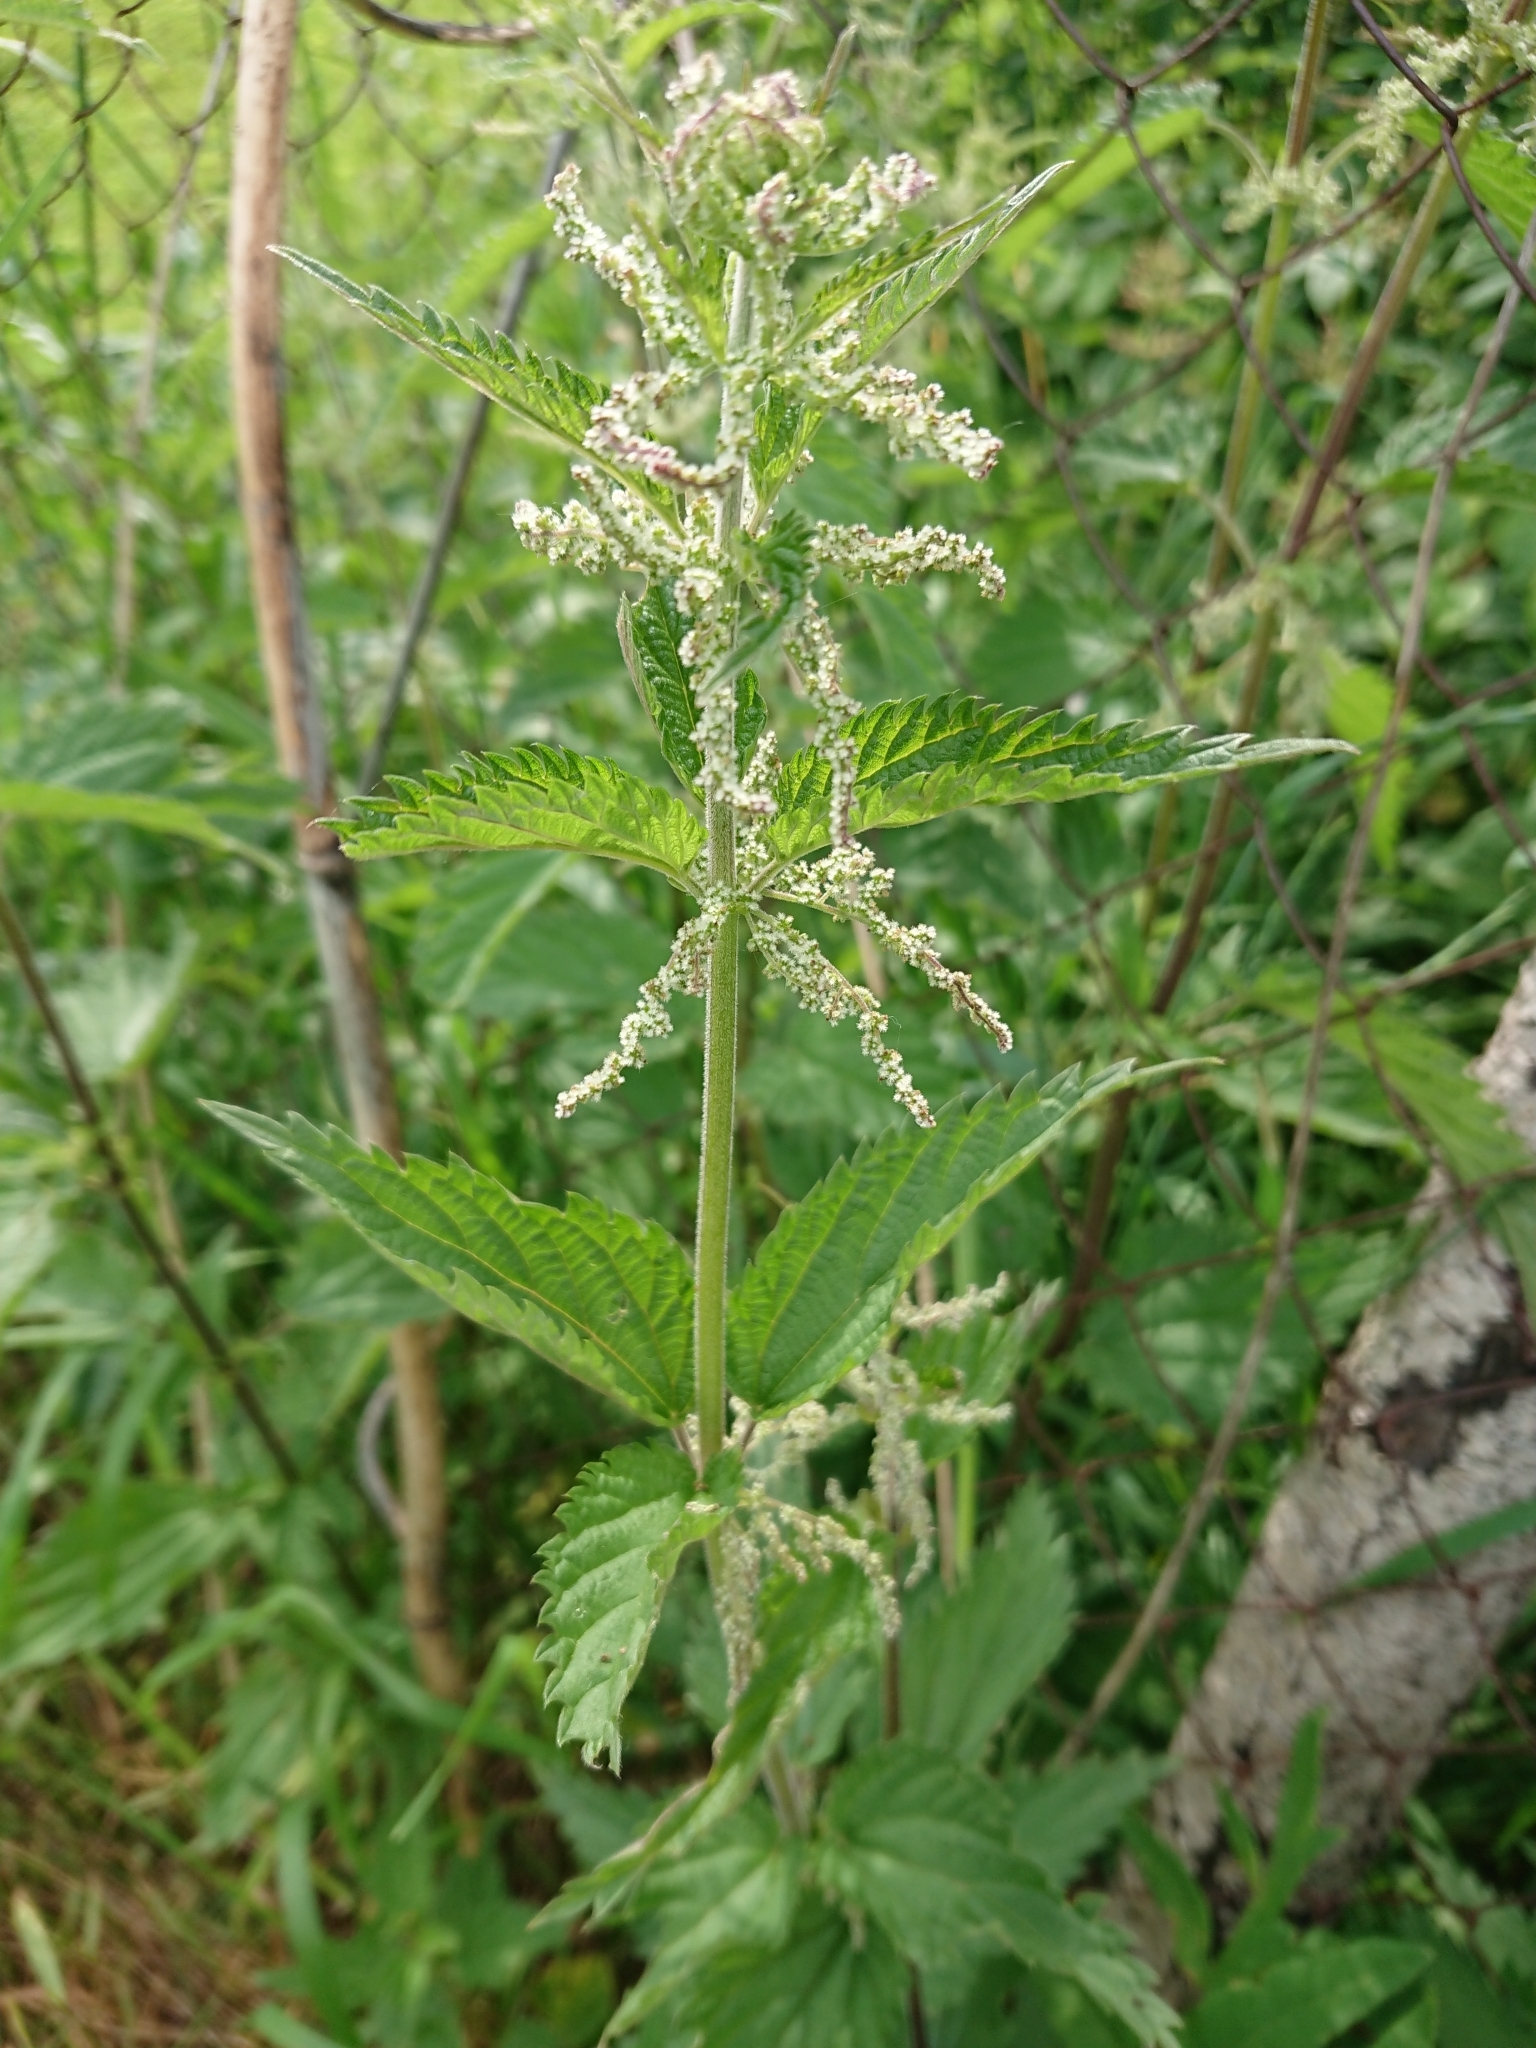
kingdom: Plantae
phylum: Tracheophyta
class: Magnoliopsida
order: Rosales
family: Urticaceae
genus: Urtica
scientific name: Urtica dioica
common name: Common nettle
